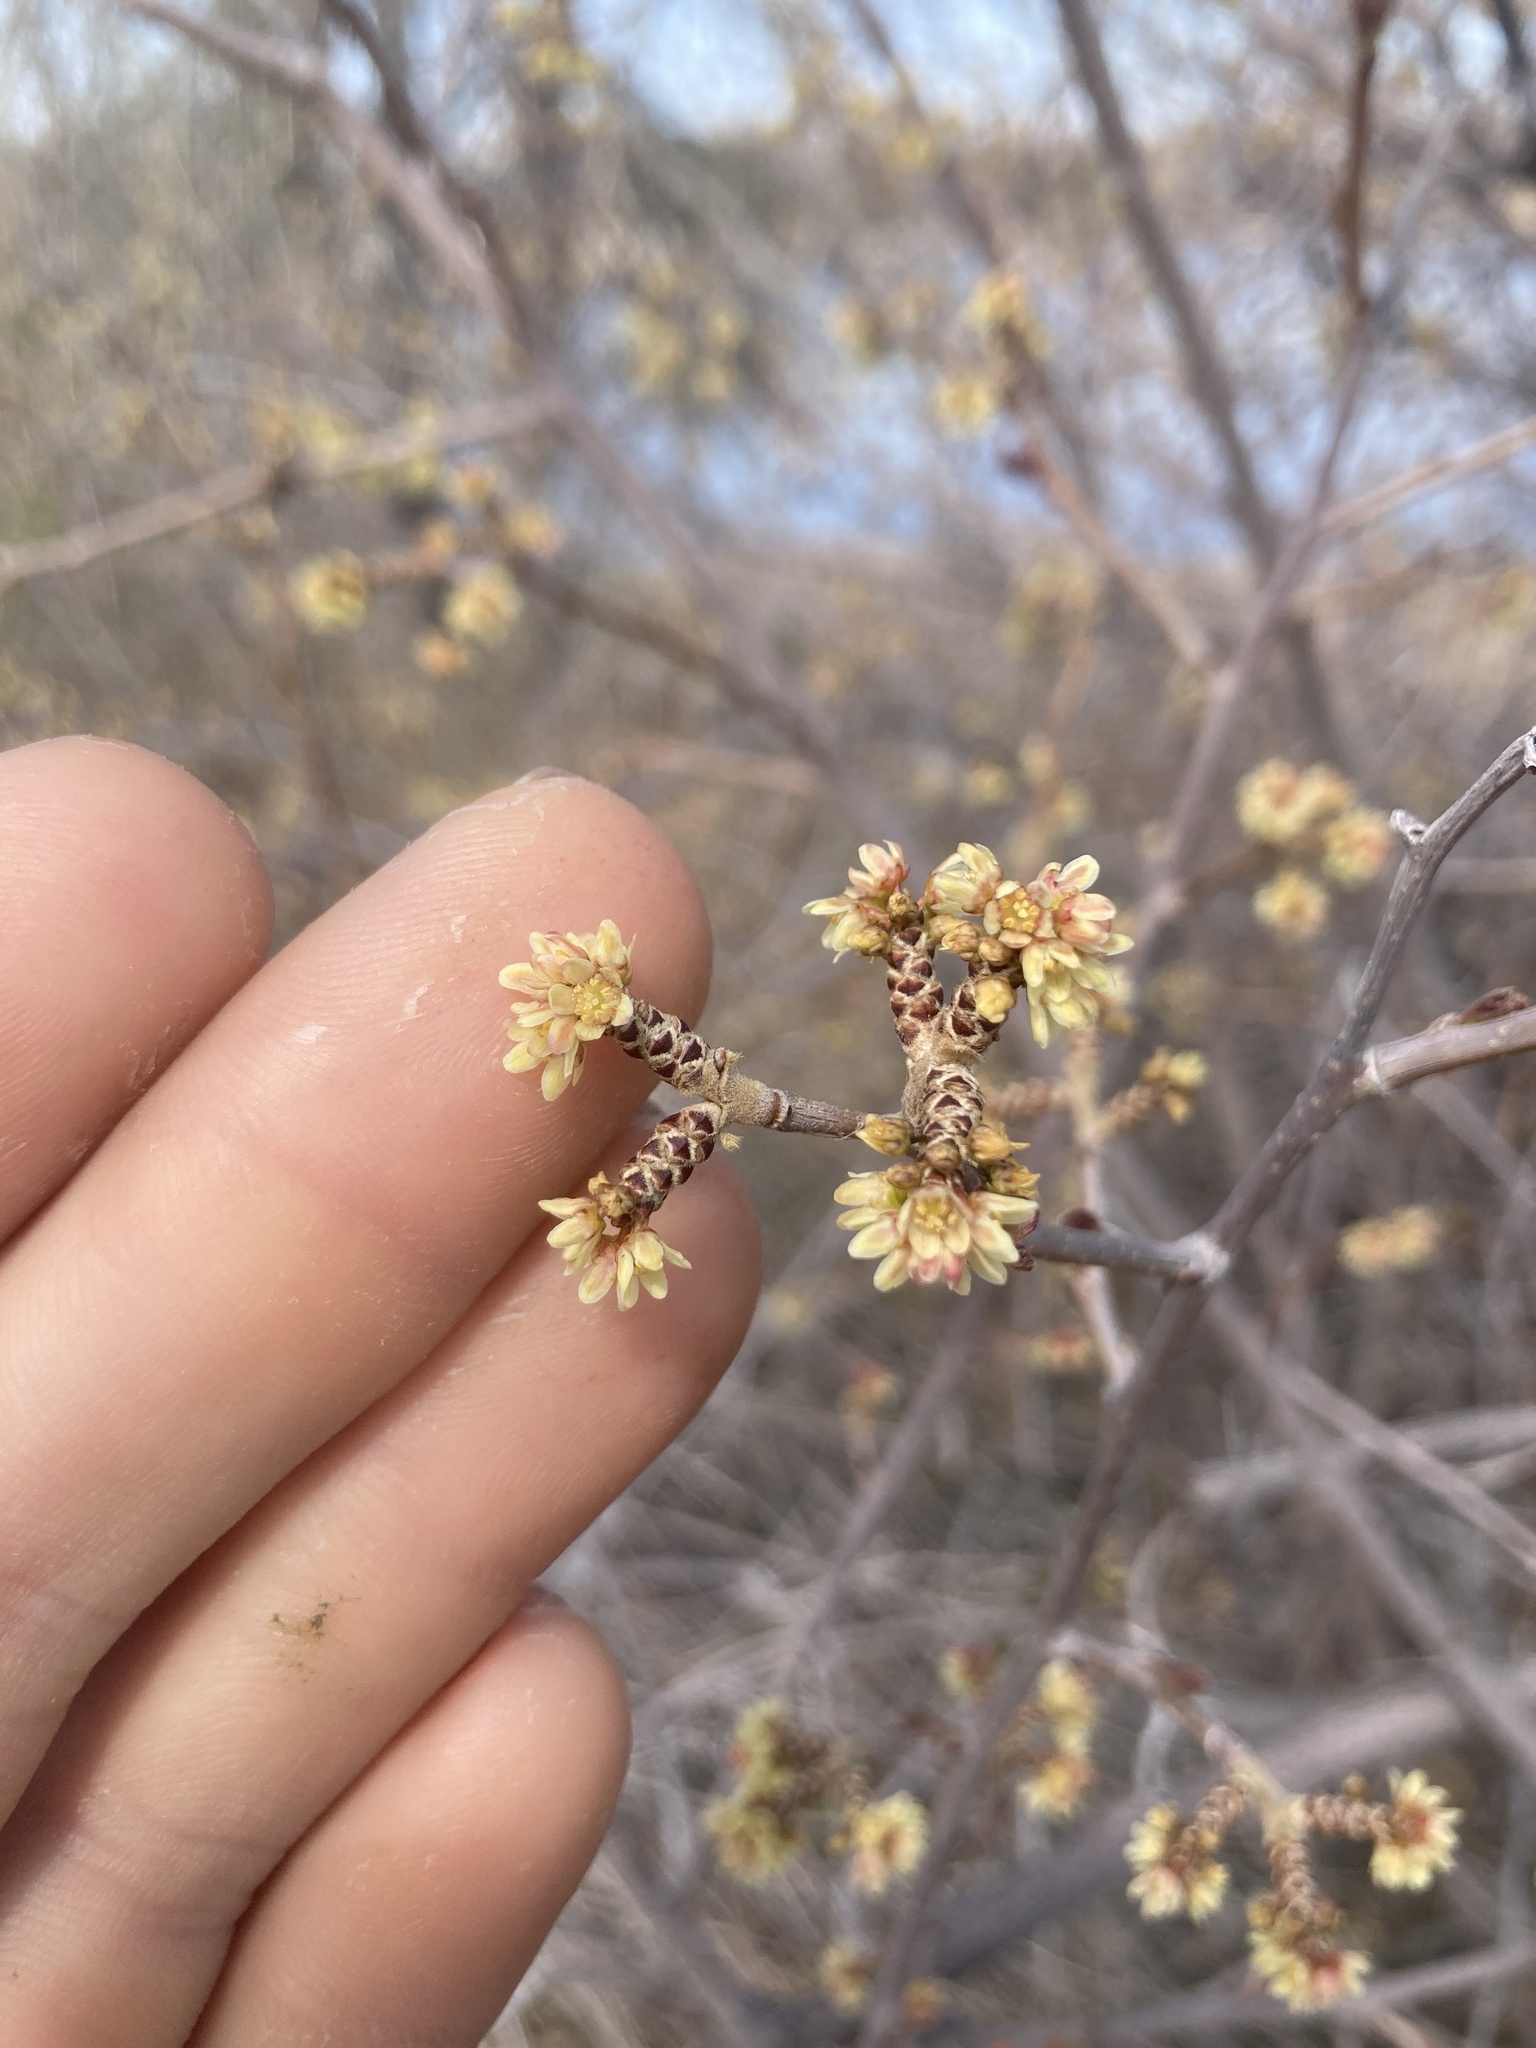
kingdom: Plantae
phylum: Tracheophyta
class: Magnoliopsida
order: Sapindales
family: Anacardiaceae
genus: Rhus
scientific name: Rhus trilobata
